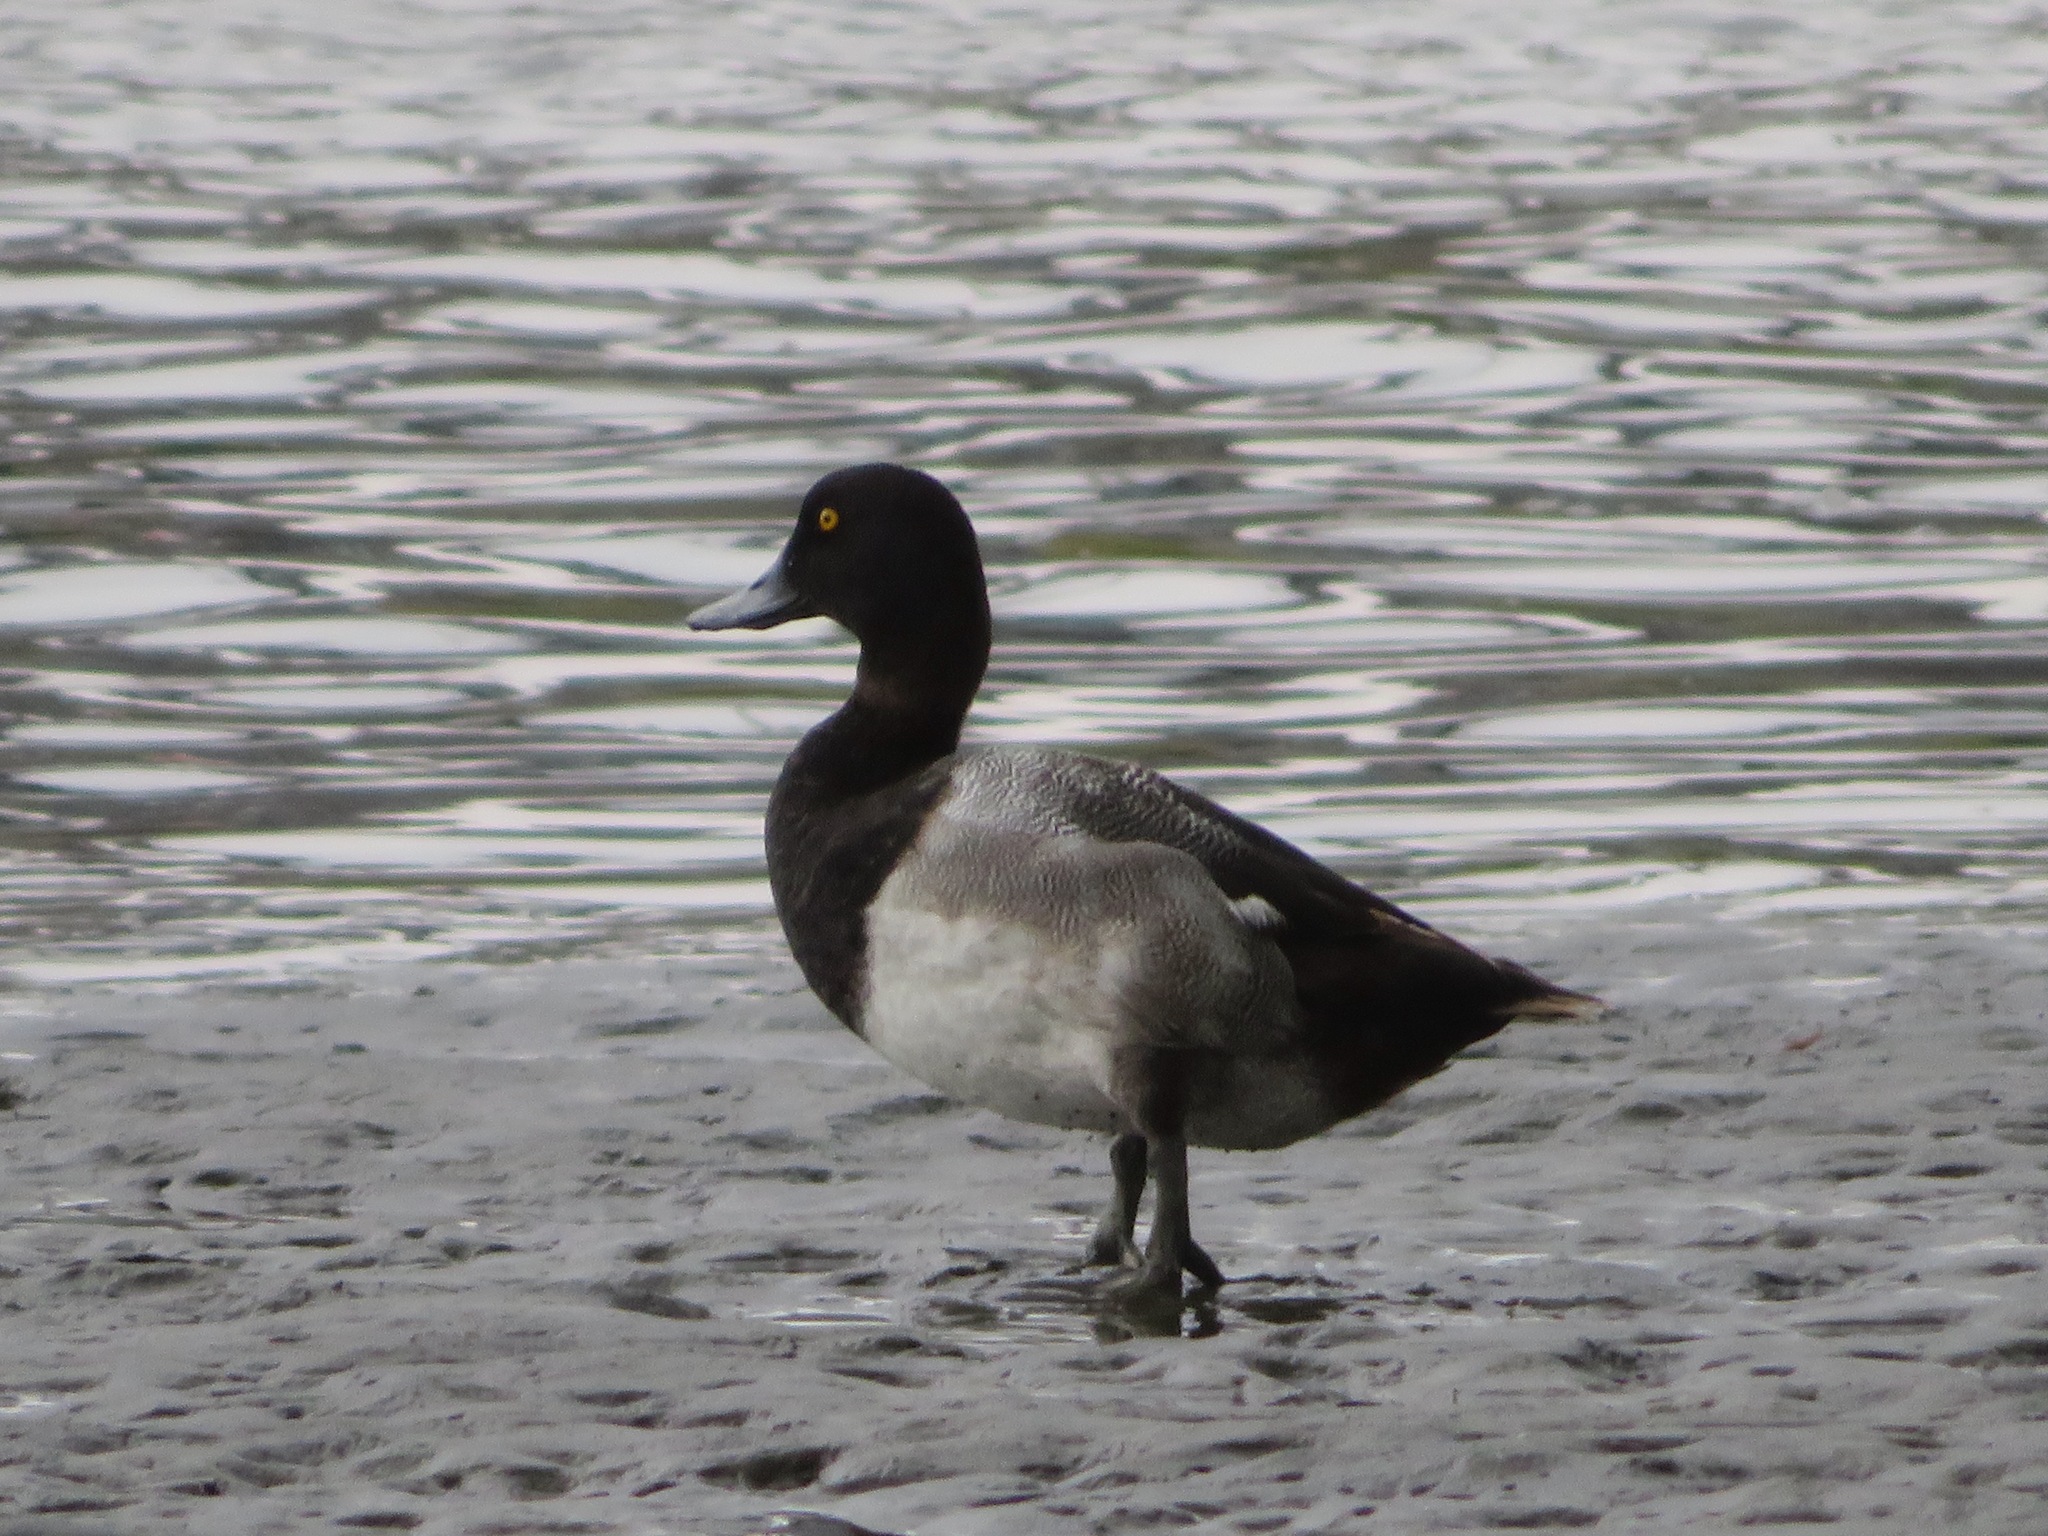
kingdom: Animalia
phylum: Chordata
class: Aves
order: Anseriformes
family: Anatidae
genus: Aythya
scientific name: Aythya marila
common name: Greater scaup
